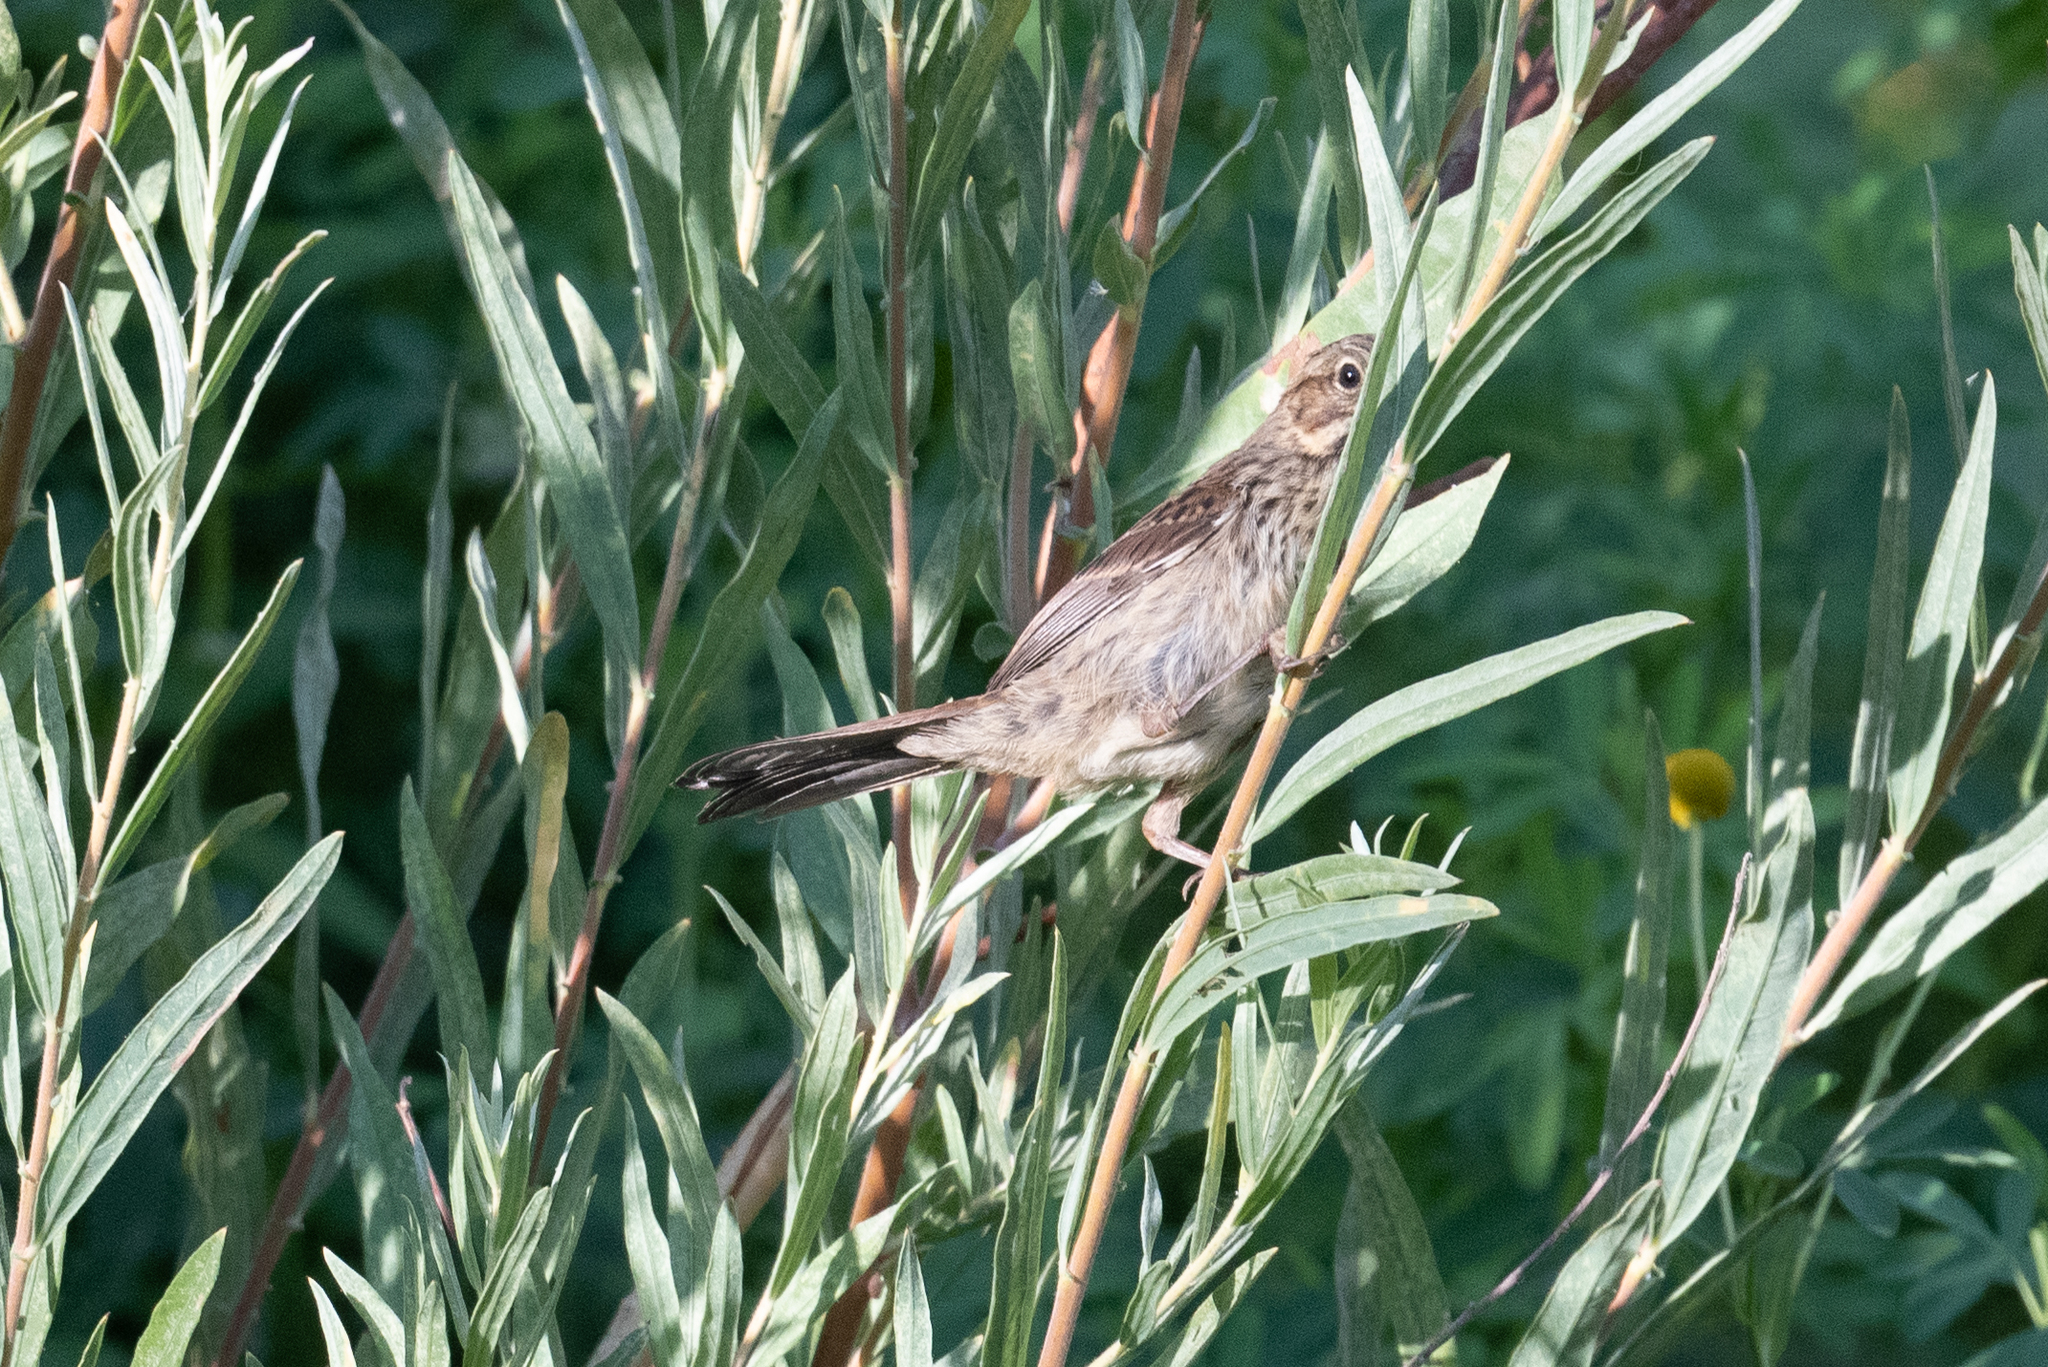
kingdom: Animalia
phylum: Chordata
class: Aves
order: Passeriformes
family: Passerellidae
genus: Melospiza
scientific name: Melospiza melodia
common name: Song sparrow
